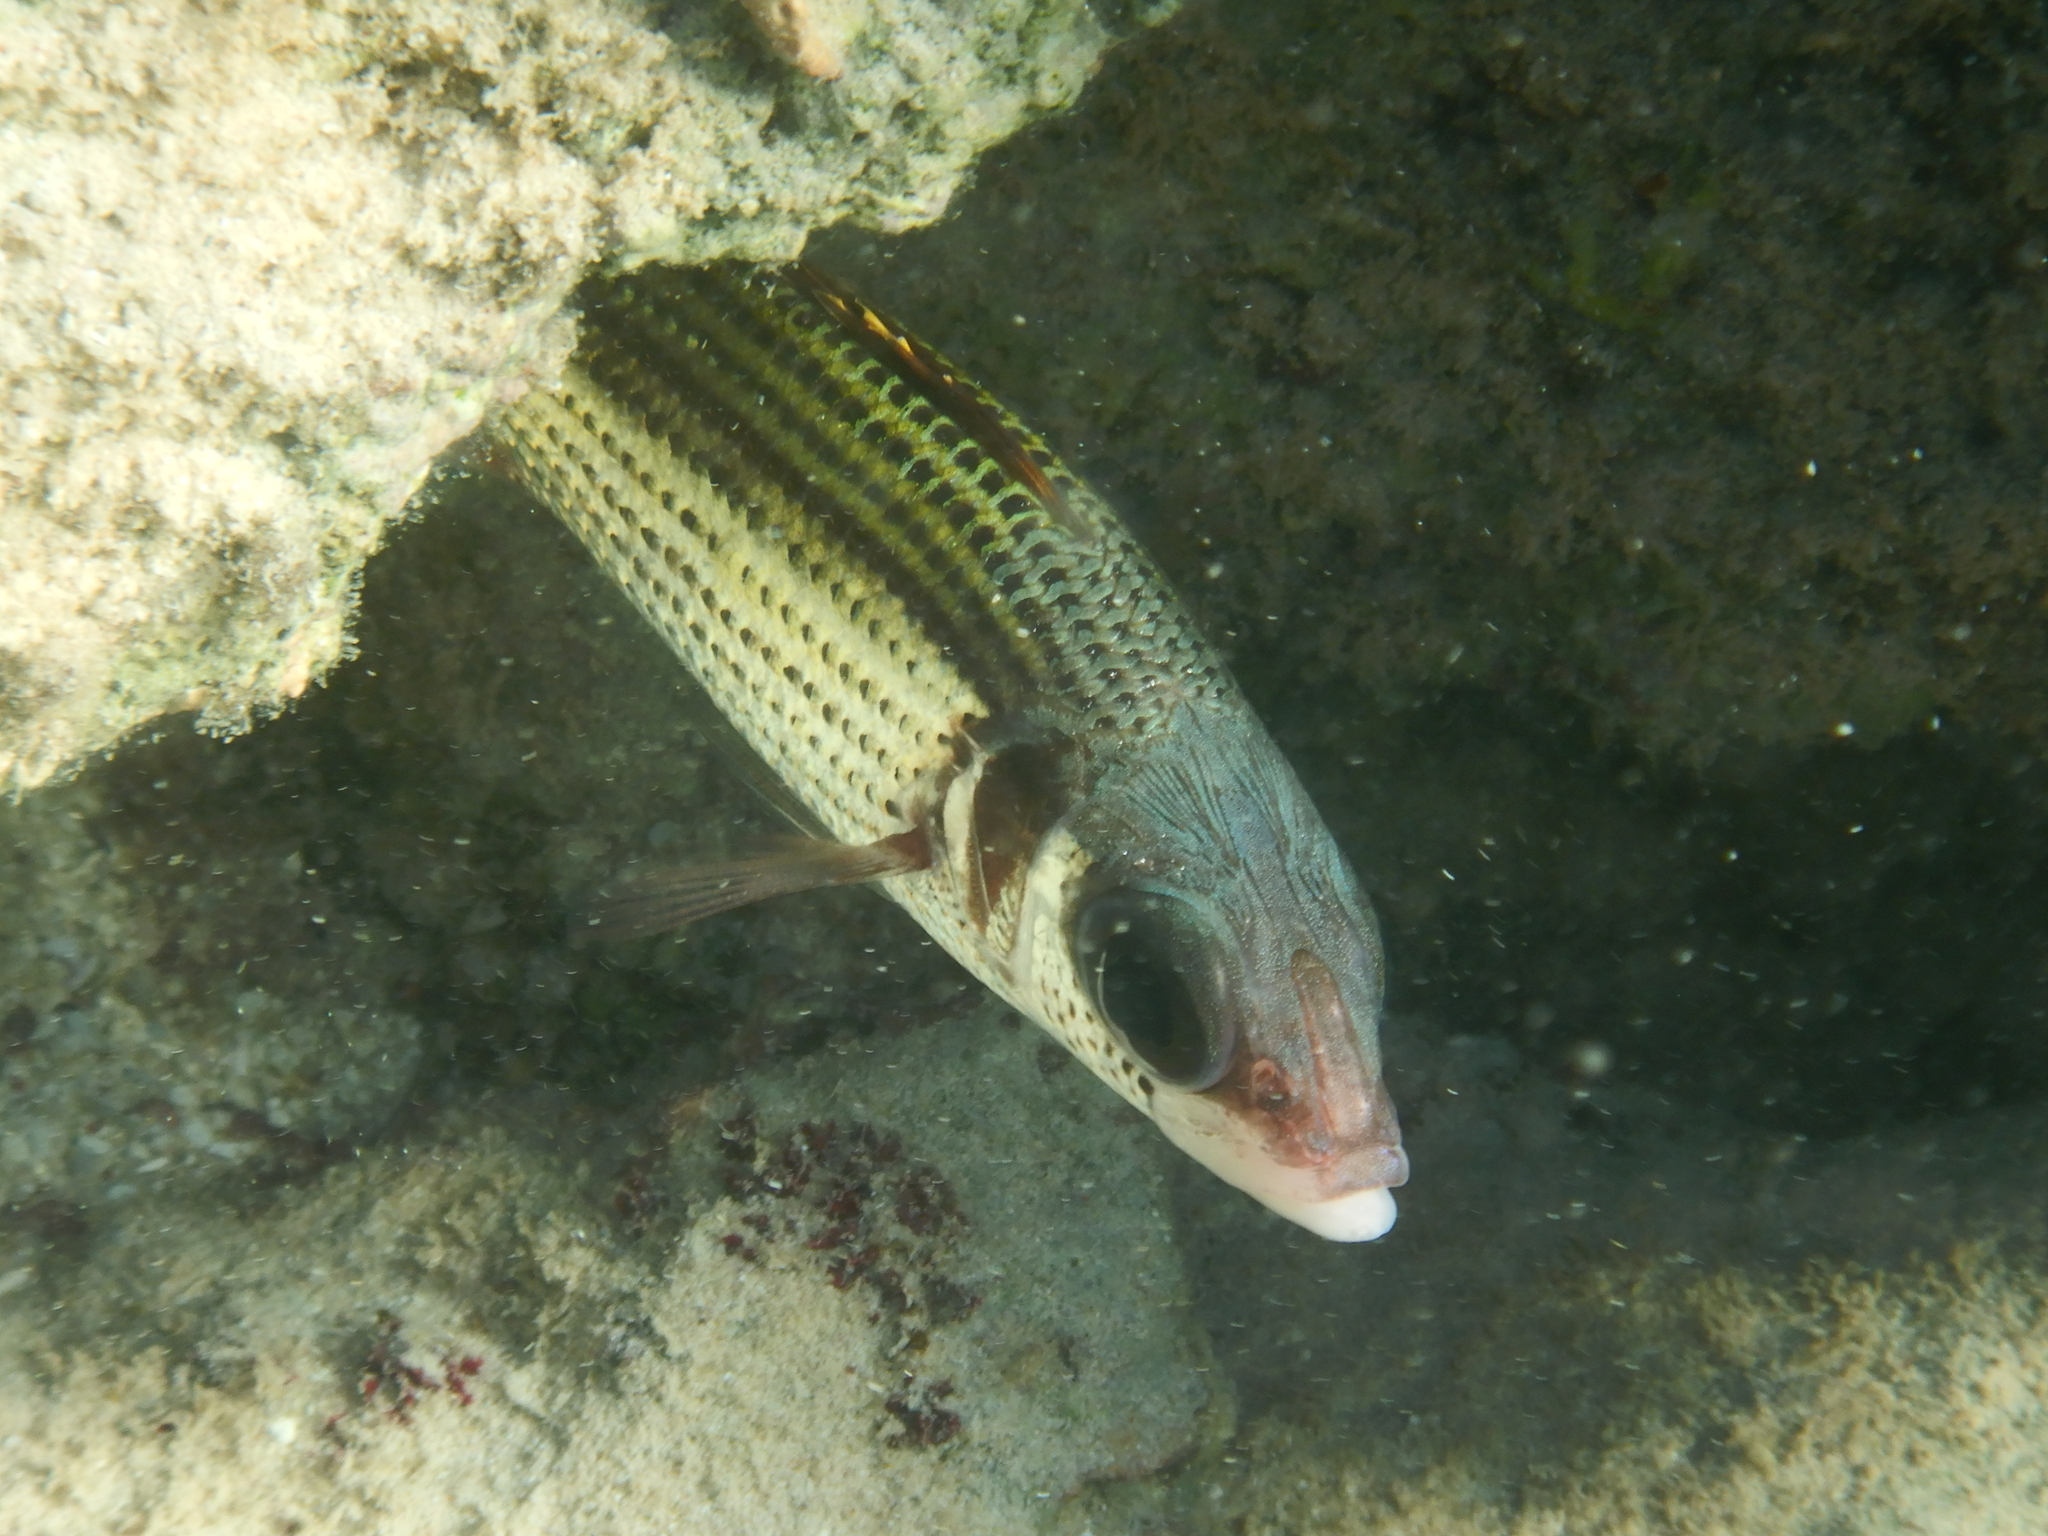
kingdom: Animalia
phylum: Chordata
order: Beryciformes
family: Holocentridae
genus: Neoniphon
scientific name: Neoniphon sammara
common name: Sammara squirrelfish
